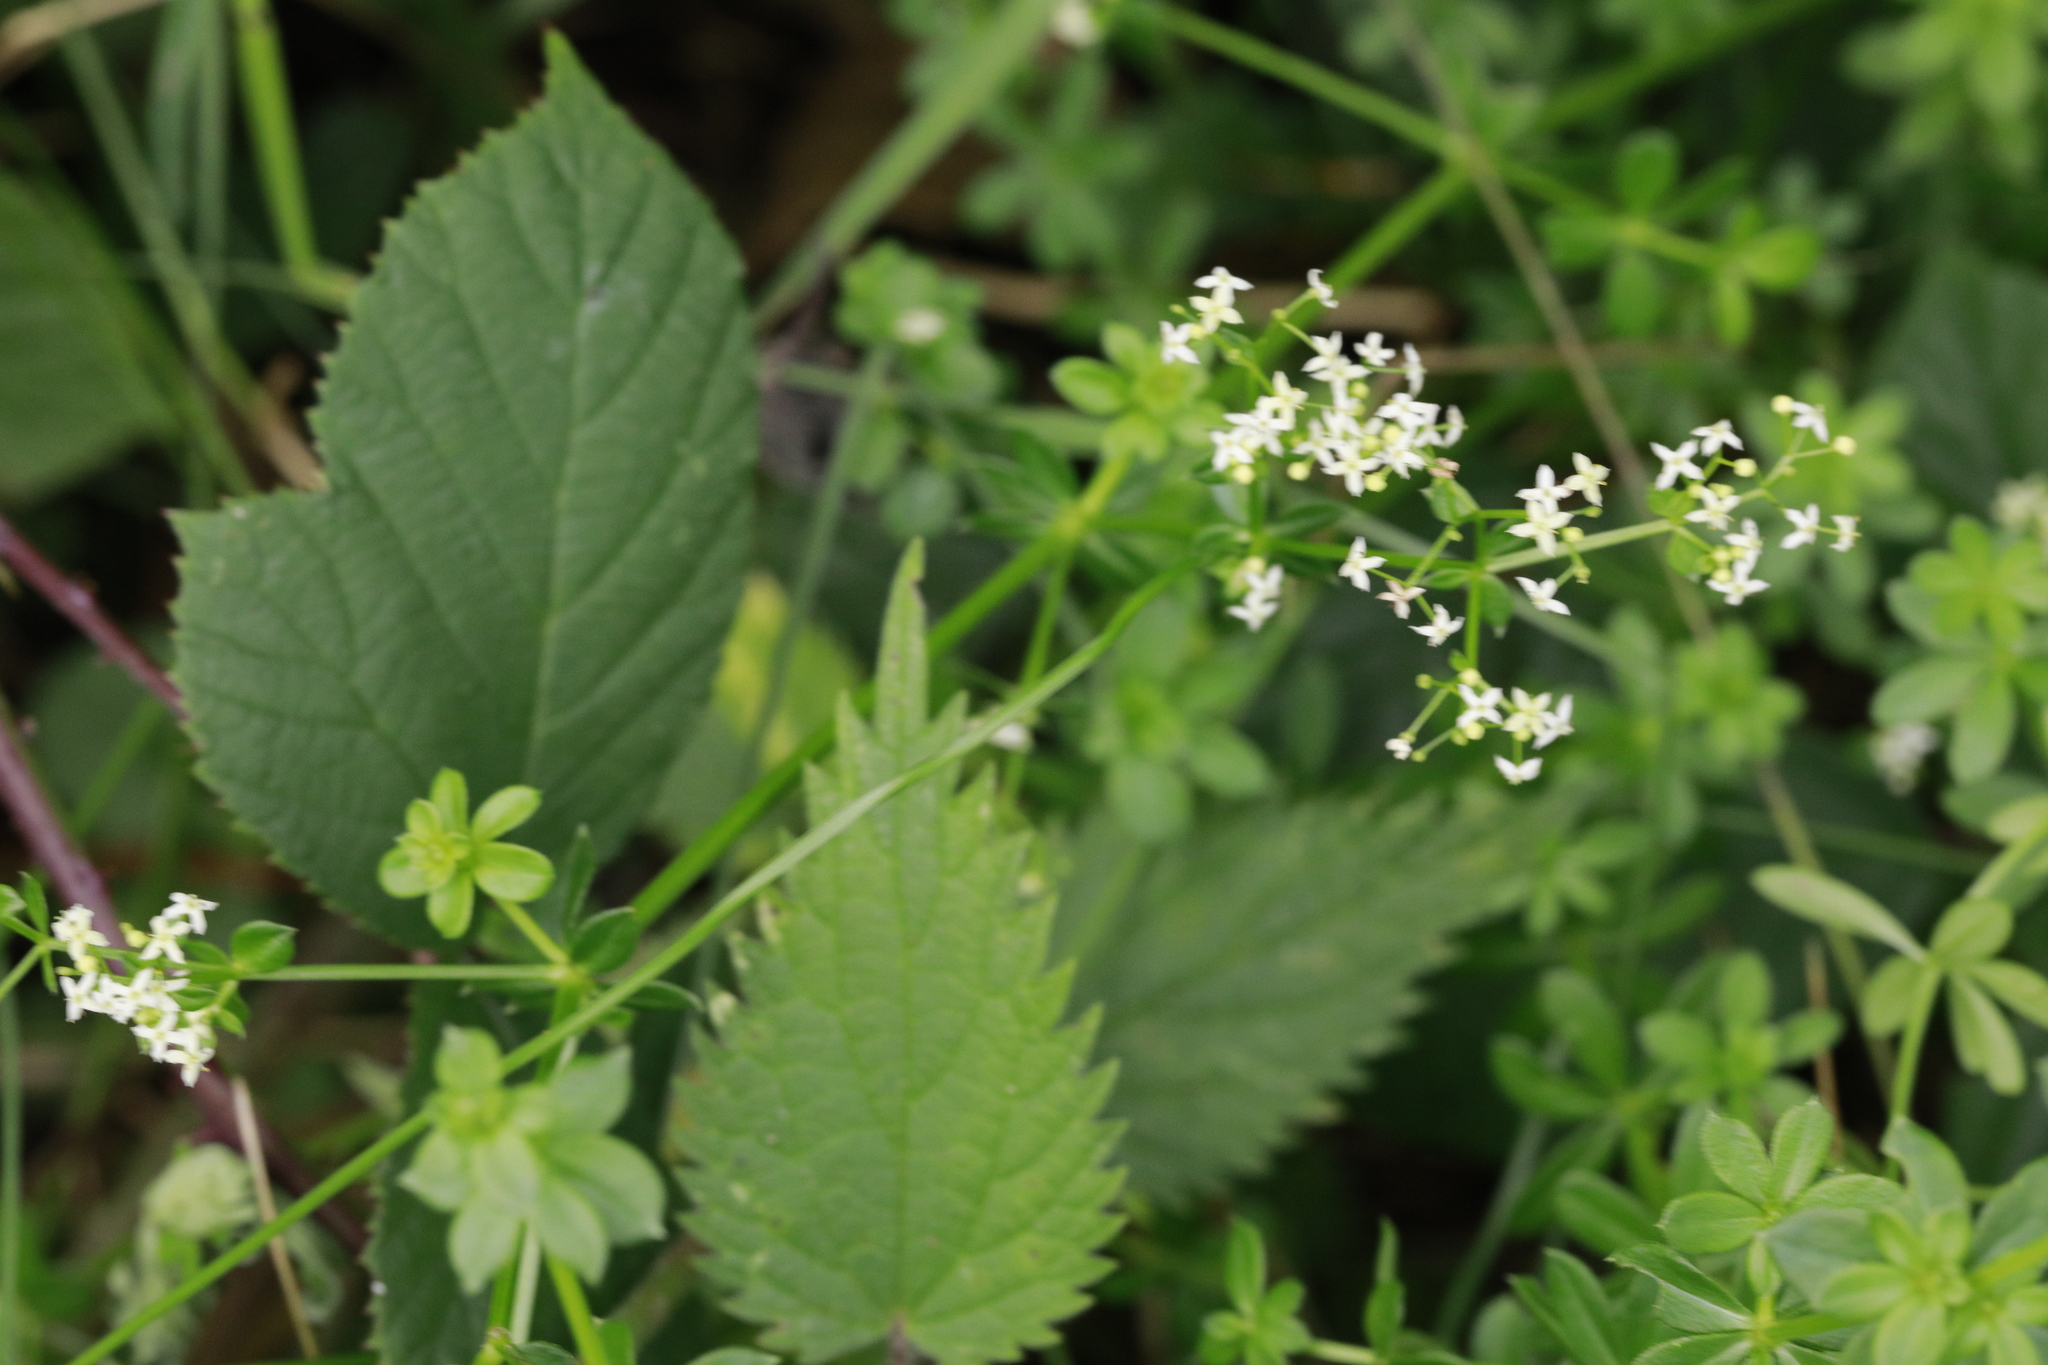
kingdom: Plantae
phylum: Tracheophyta
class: Magnoliopsida
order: Gentianales
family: Rubiaceae
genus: Galium
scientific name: Galium mollugo
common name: Hedge bedstraw
